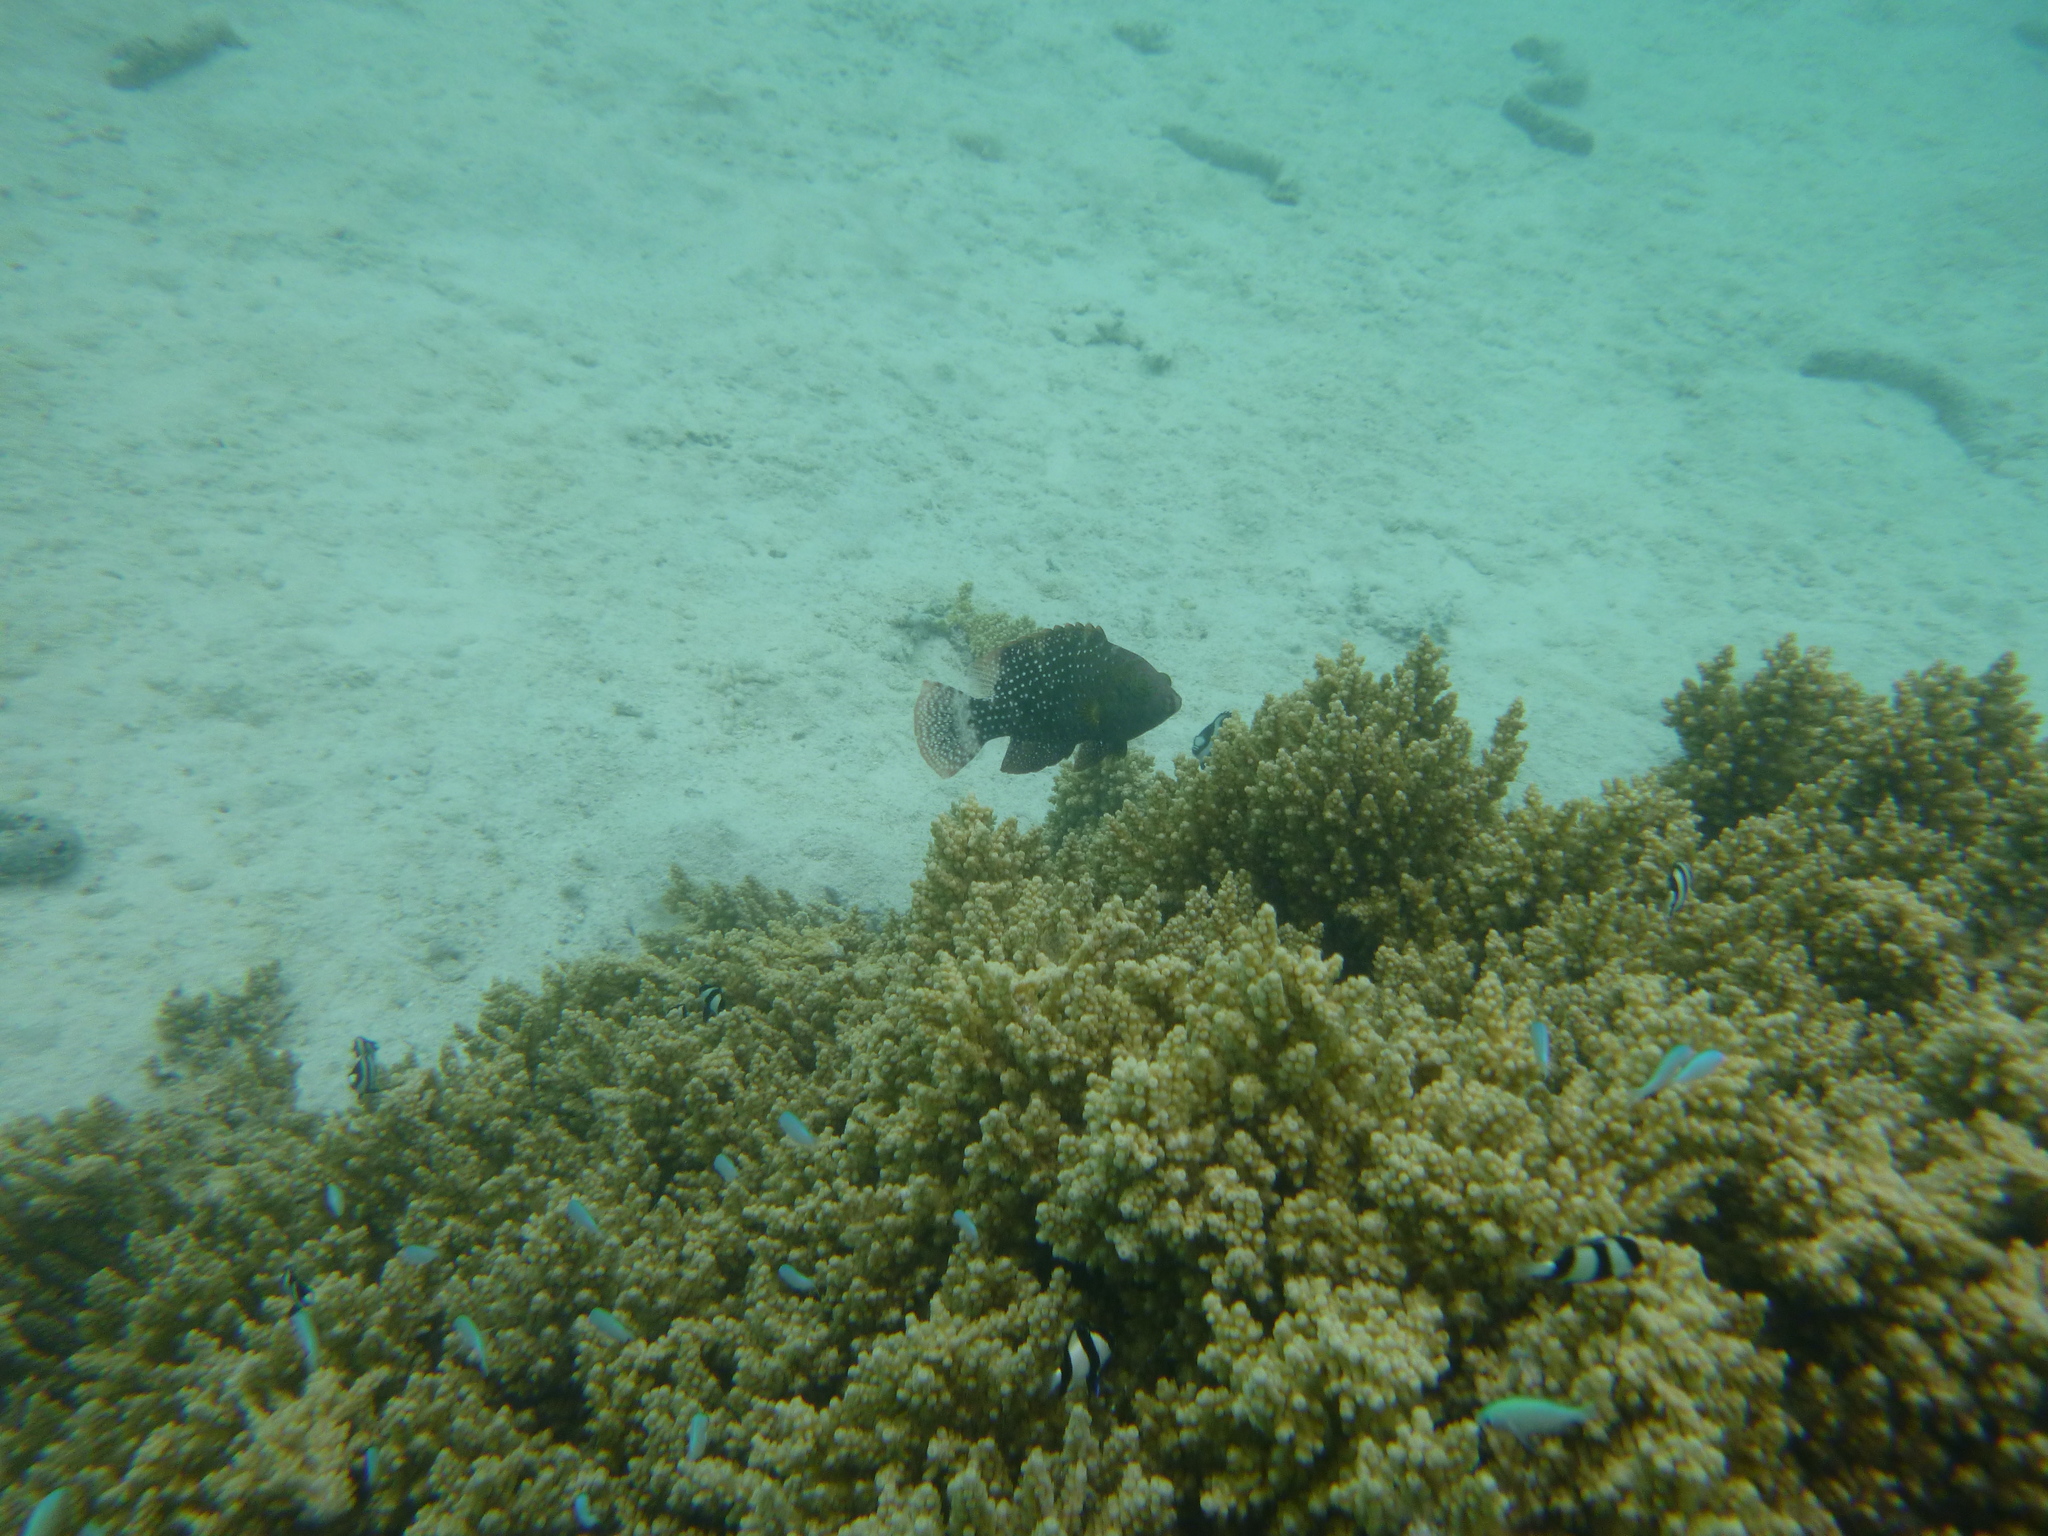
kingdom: Animalia
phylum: Chordata
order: Perciformes
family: Labridae
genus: Cheilinus
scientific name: Cheilinus chlorourus
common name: Floral wrasse
